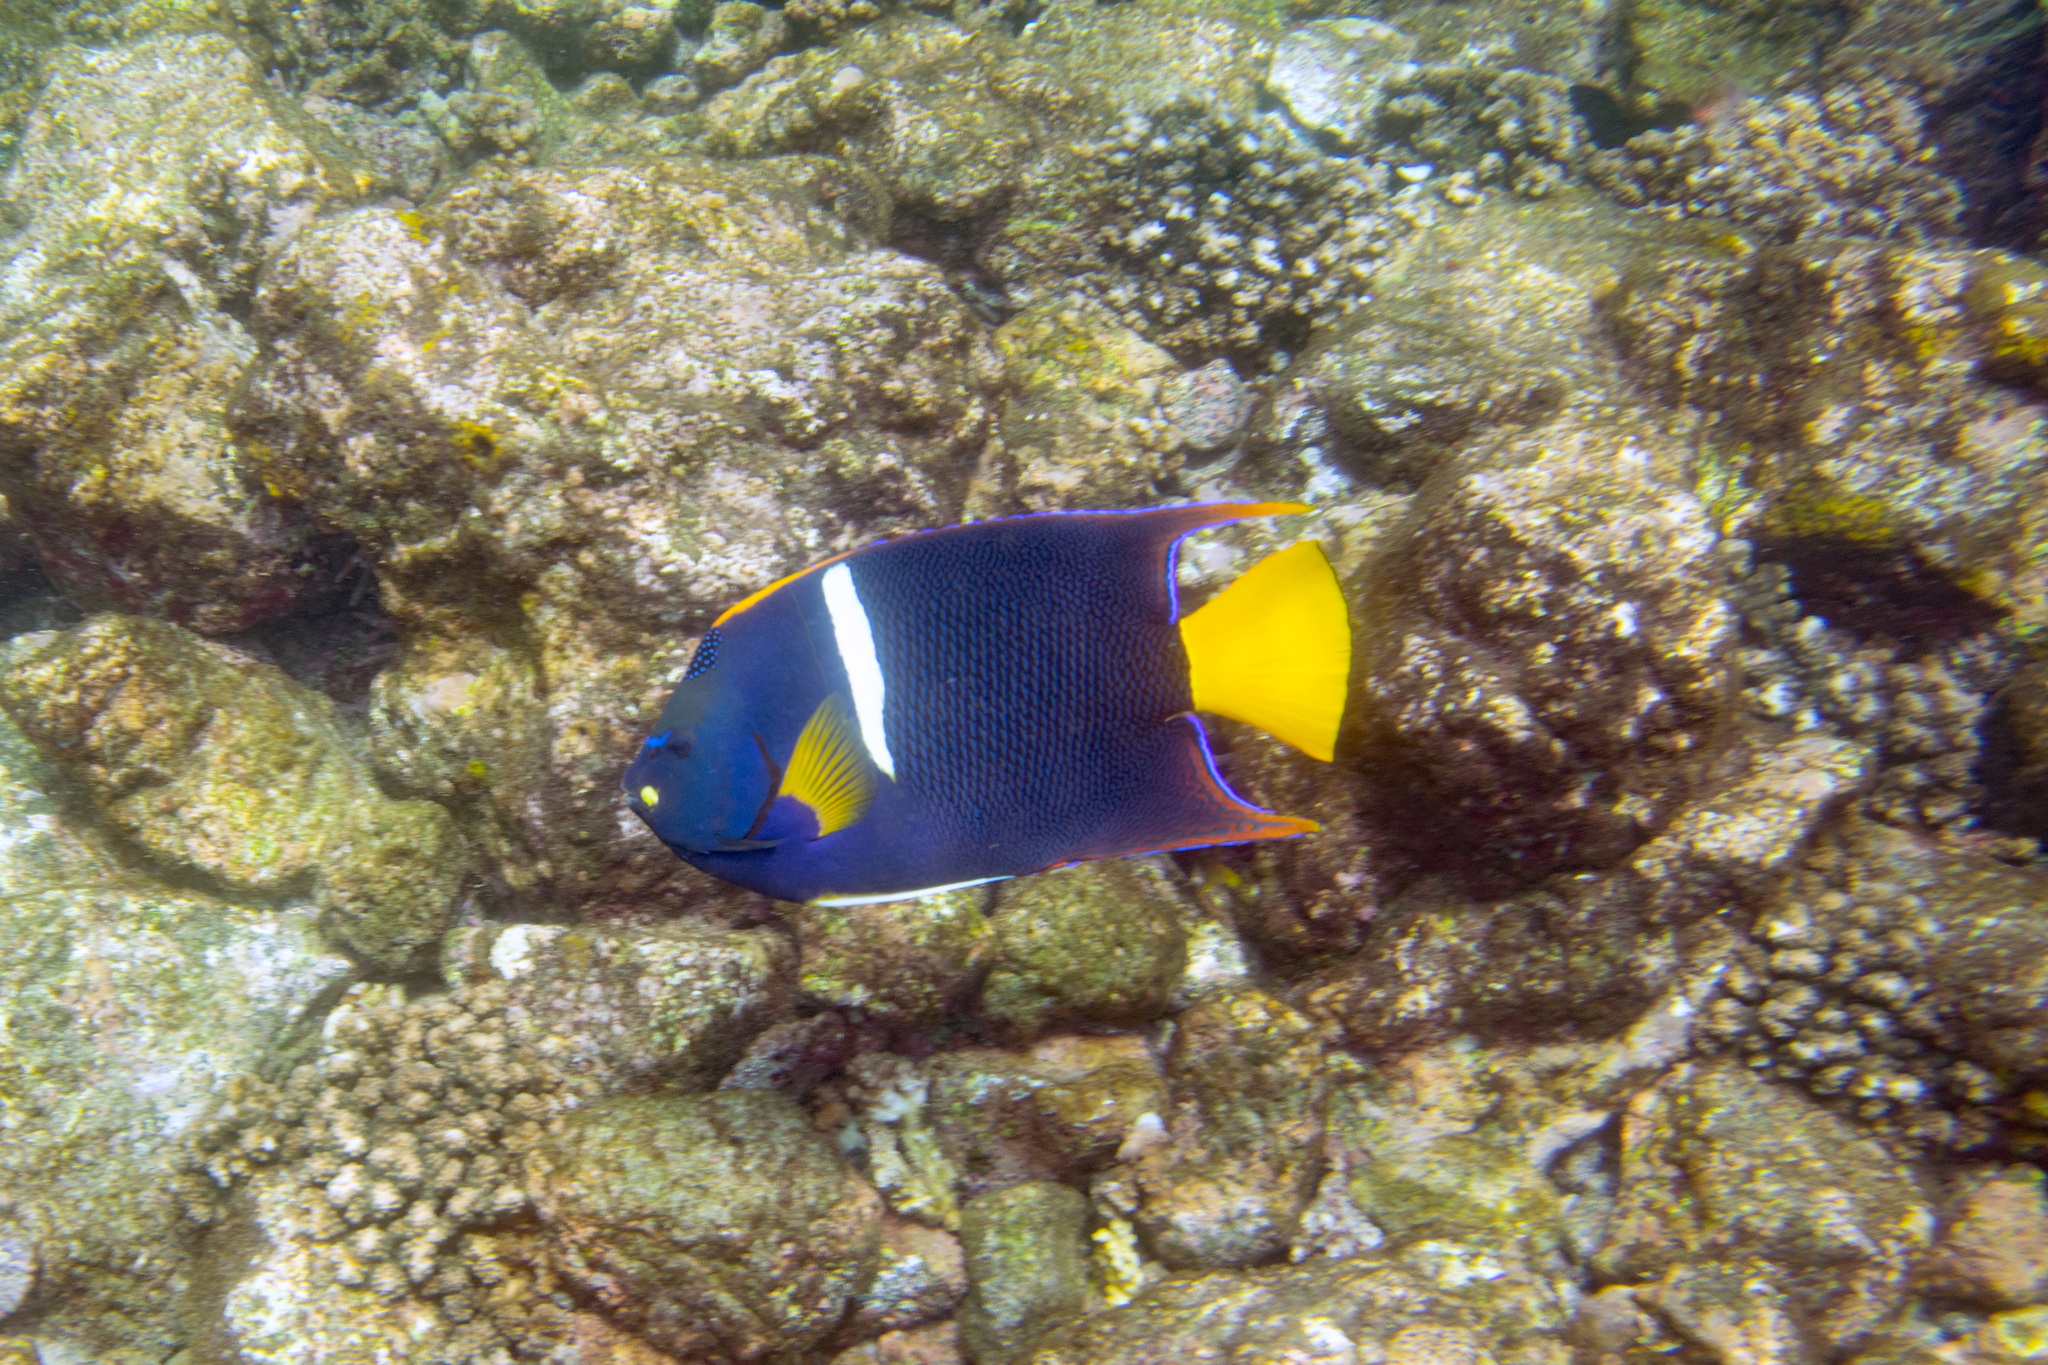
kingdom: Animalia
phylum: Chordata
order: Perciformes
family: Pomacanthidae
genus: Holacanthus
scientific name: Holacanthus passer
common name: King angelfish
